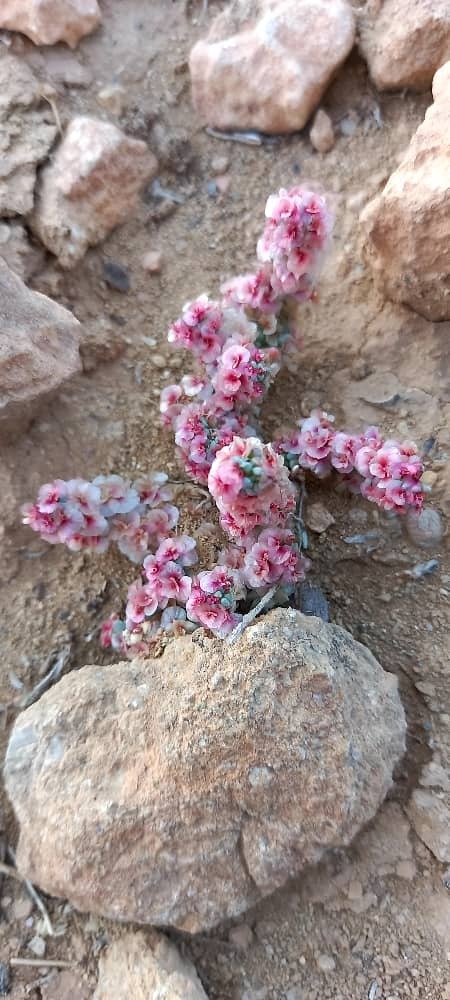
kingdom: Plantae
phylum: Tracheophyta
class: Magnoliopsida
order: Caryophyllales
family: Amaranthaceae
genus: Halogeton
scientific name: Halogeton sativus
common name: Barilla
